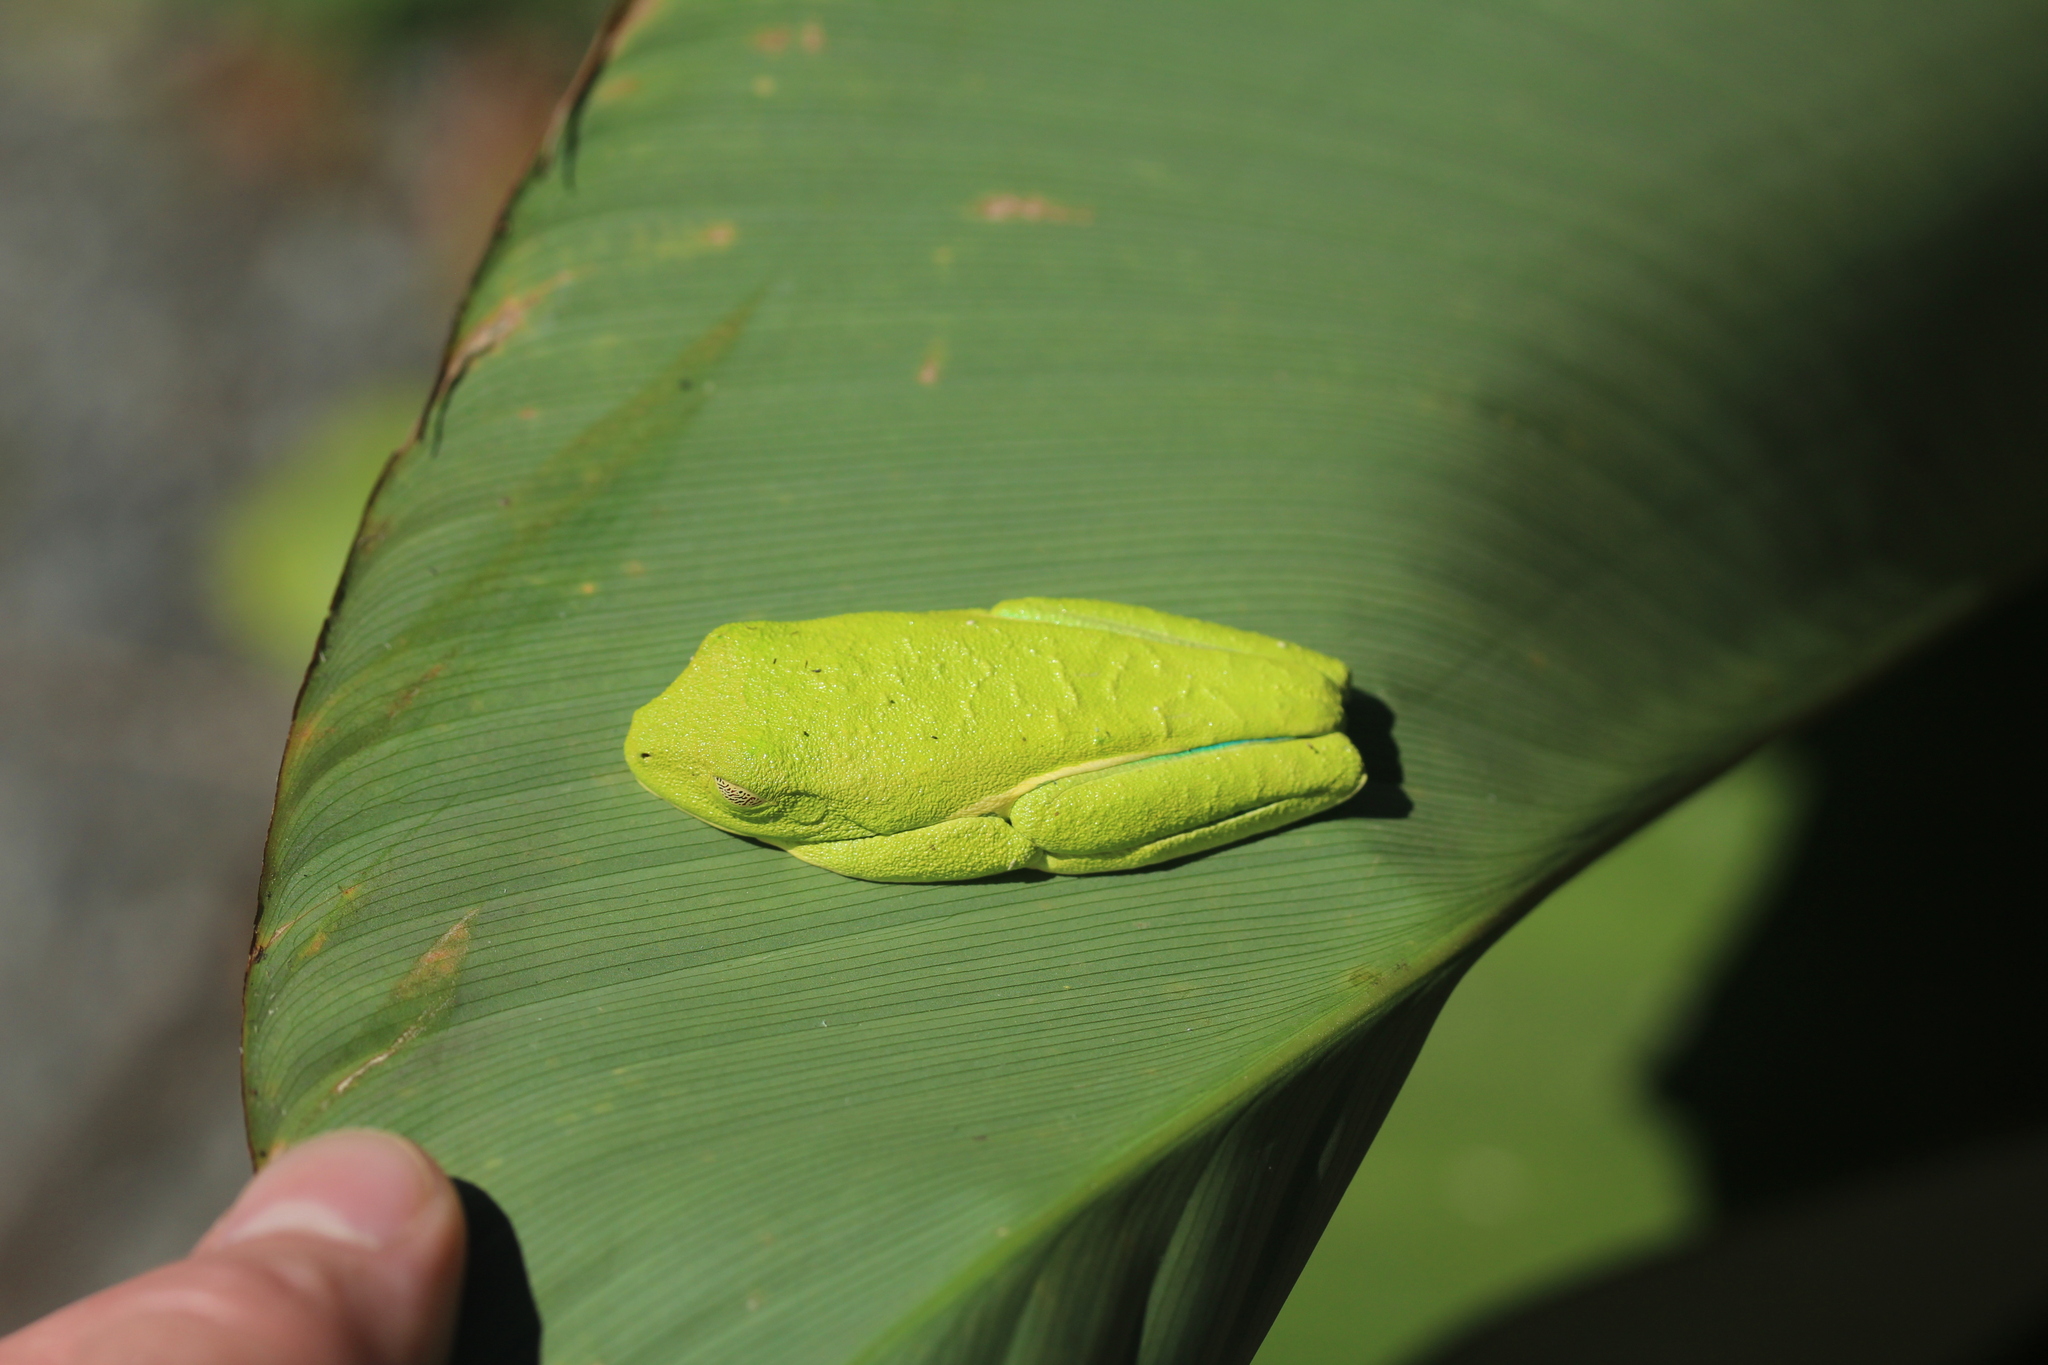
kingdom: Animalia
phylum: Chordata
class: Amphibia
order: Anura
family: Phyllomedusidae
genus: Agalychnis
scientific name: Agalychnis callidryas
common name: Red-eyed treefrog
